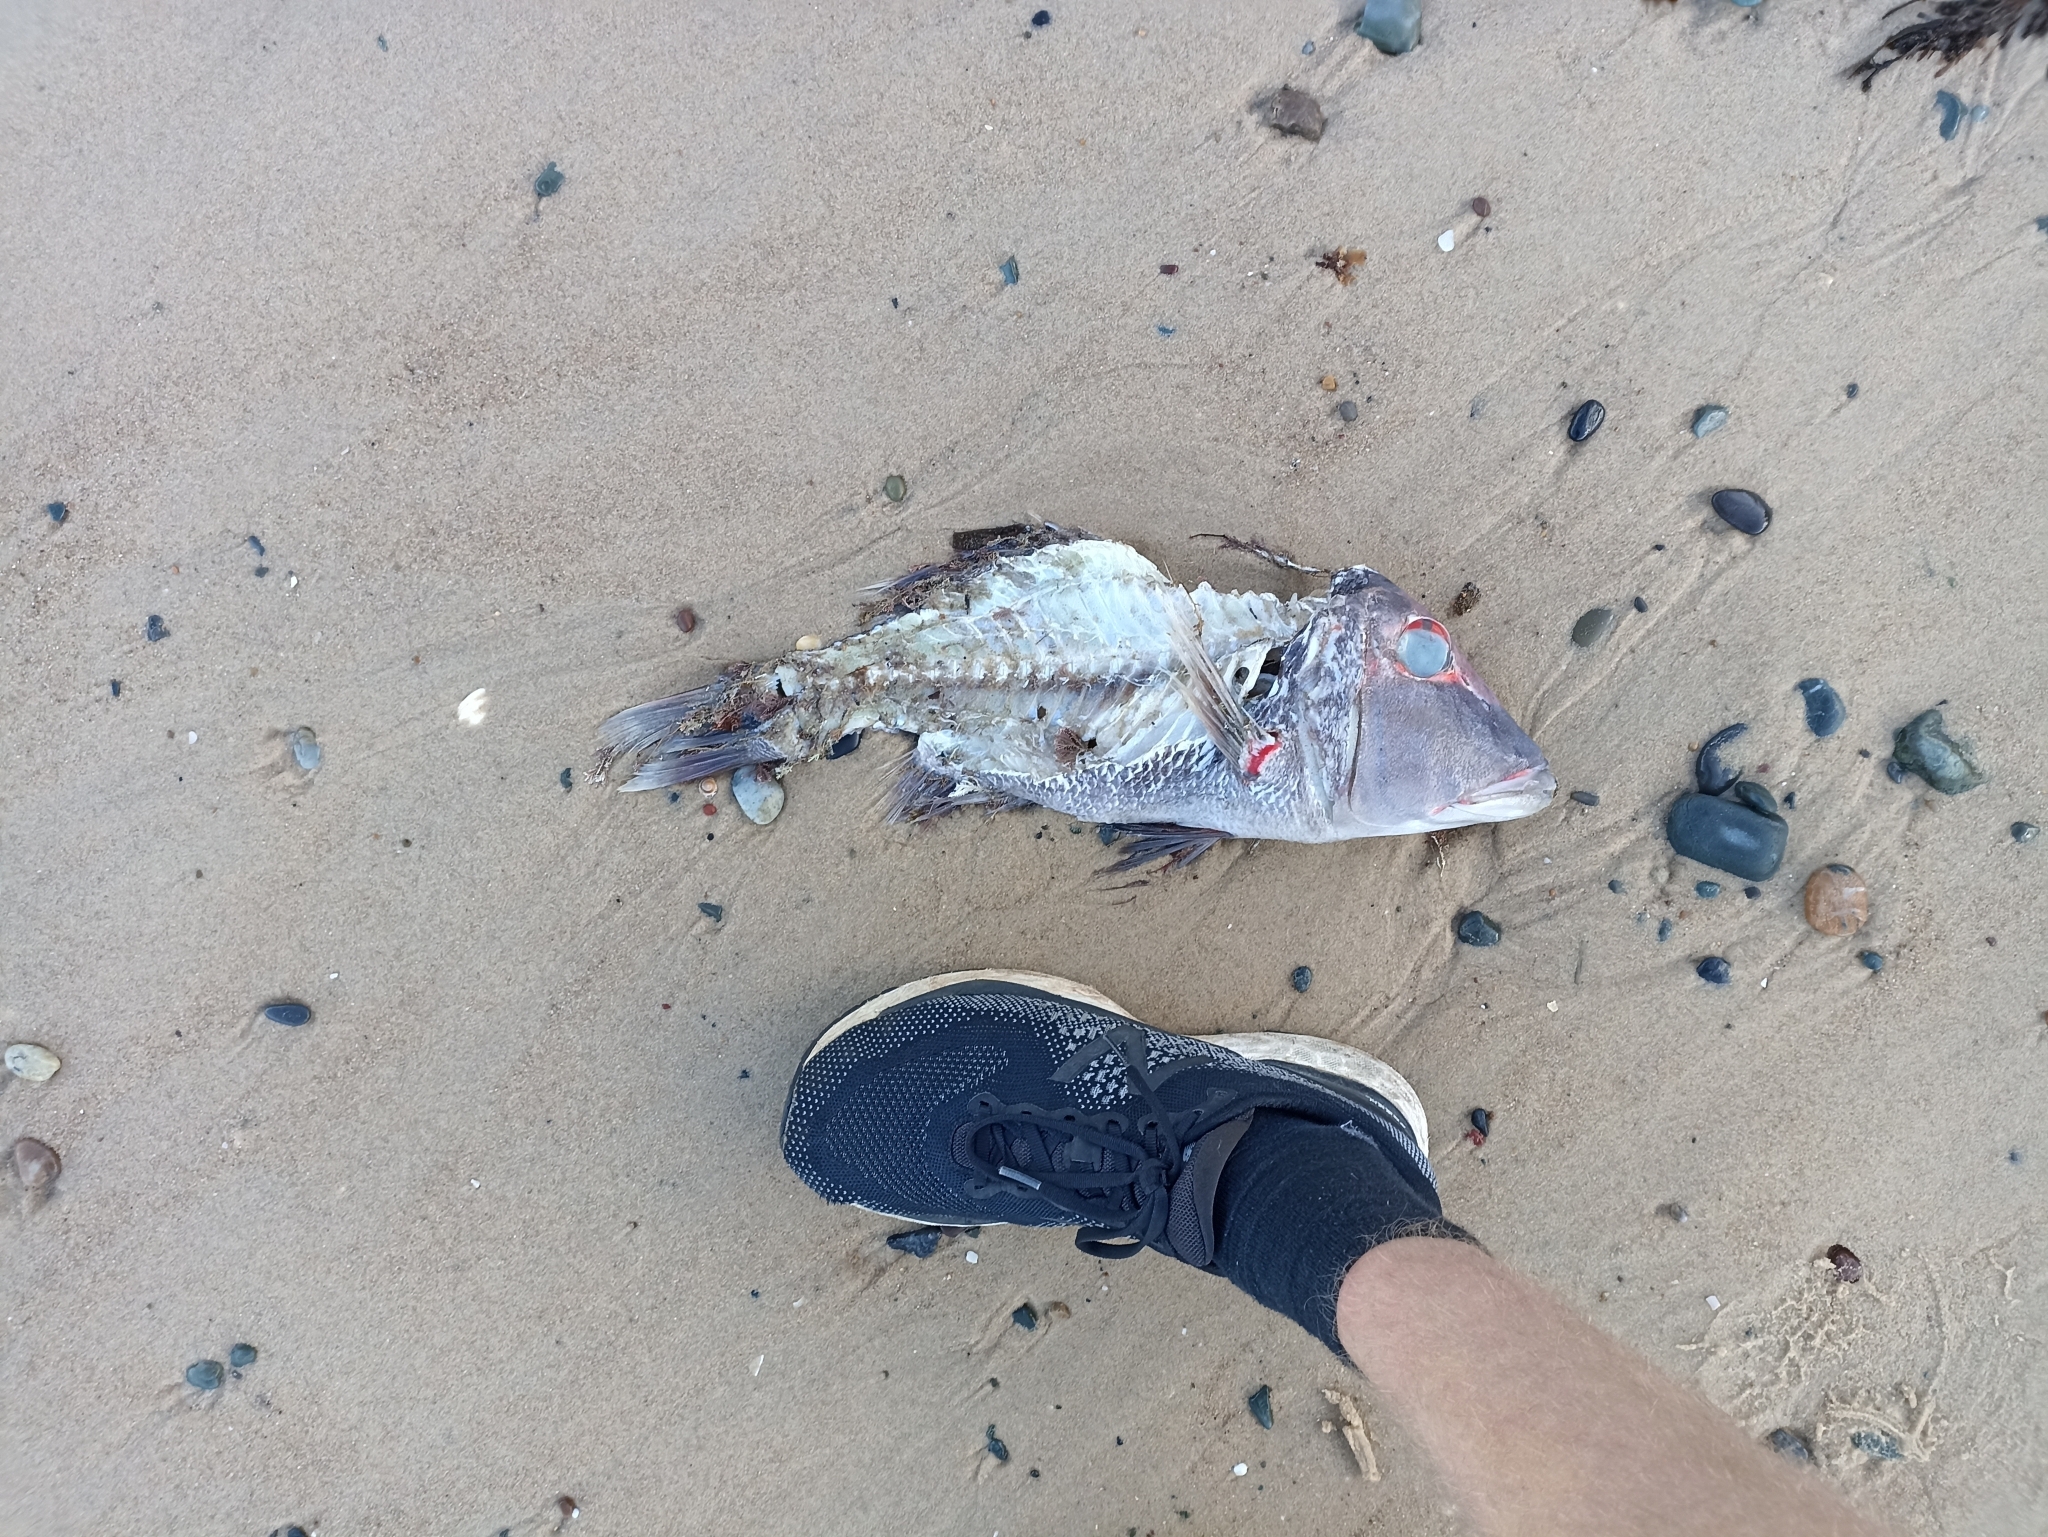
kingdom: Animalia
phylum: Chordata
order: Perciformes
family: Lethrinidae
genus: Lethrinus
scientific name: Lethrinus miniatus
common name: Trumpet emperor
